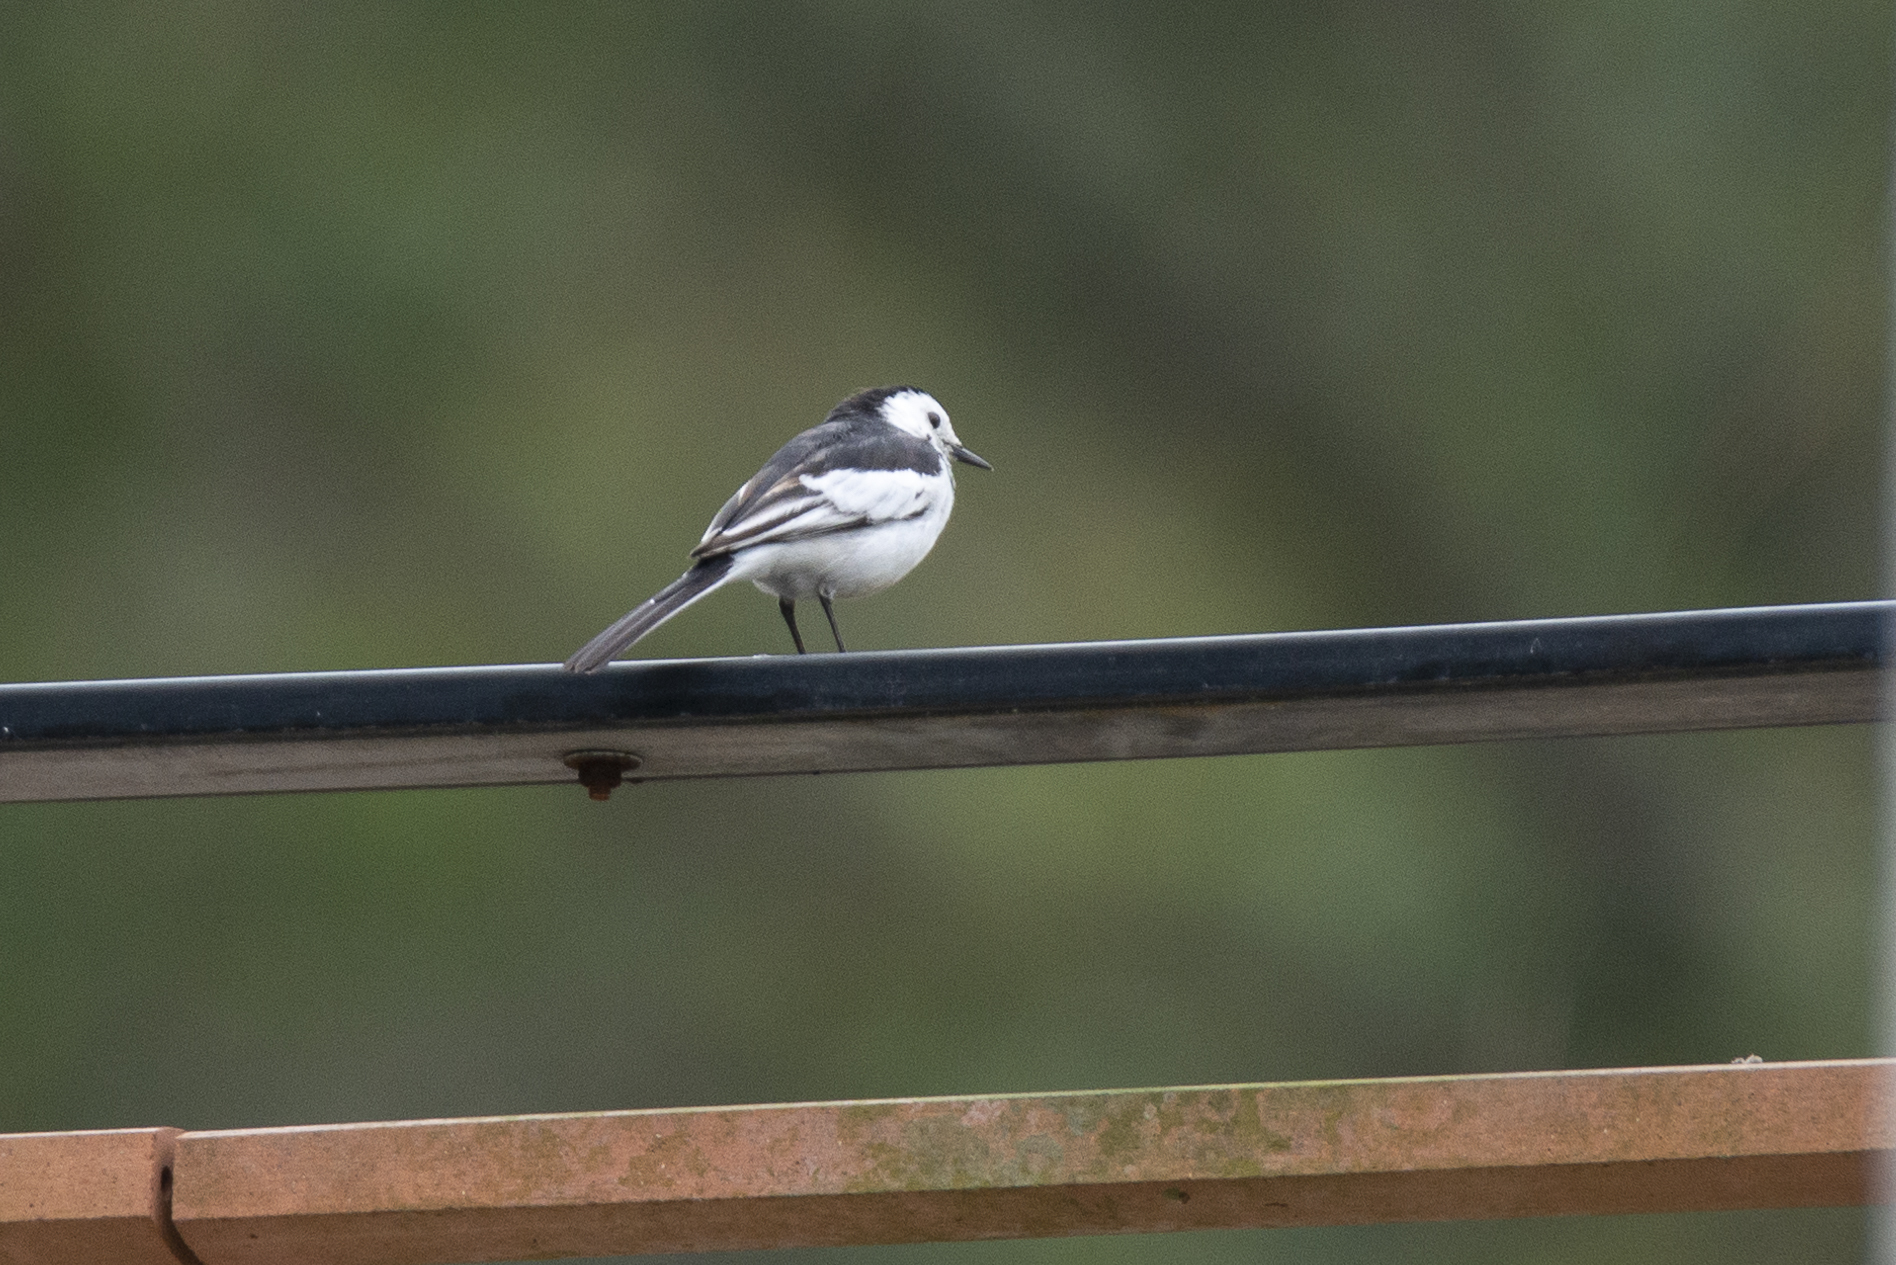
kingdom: Animalia
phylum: Chordata
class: Aves
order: Passeriformes
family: Motacillidae
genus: Motacilla
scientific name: Motacilla alba
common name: White wagtail
